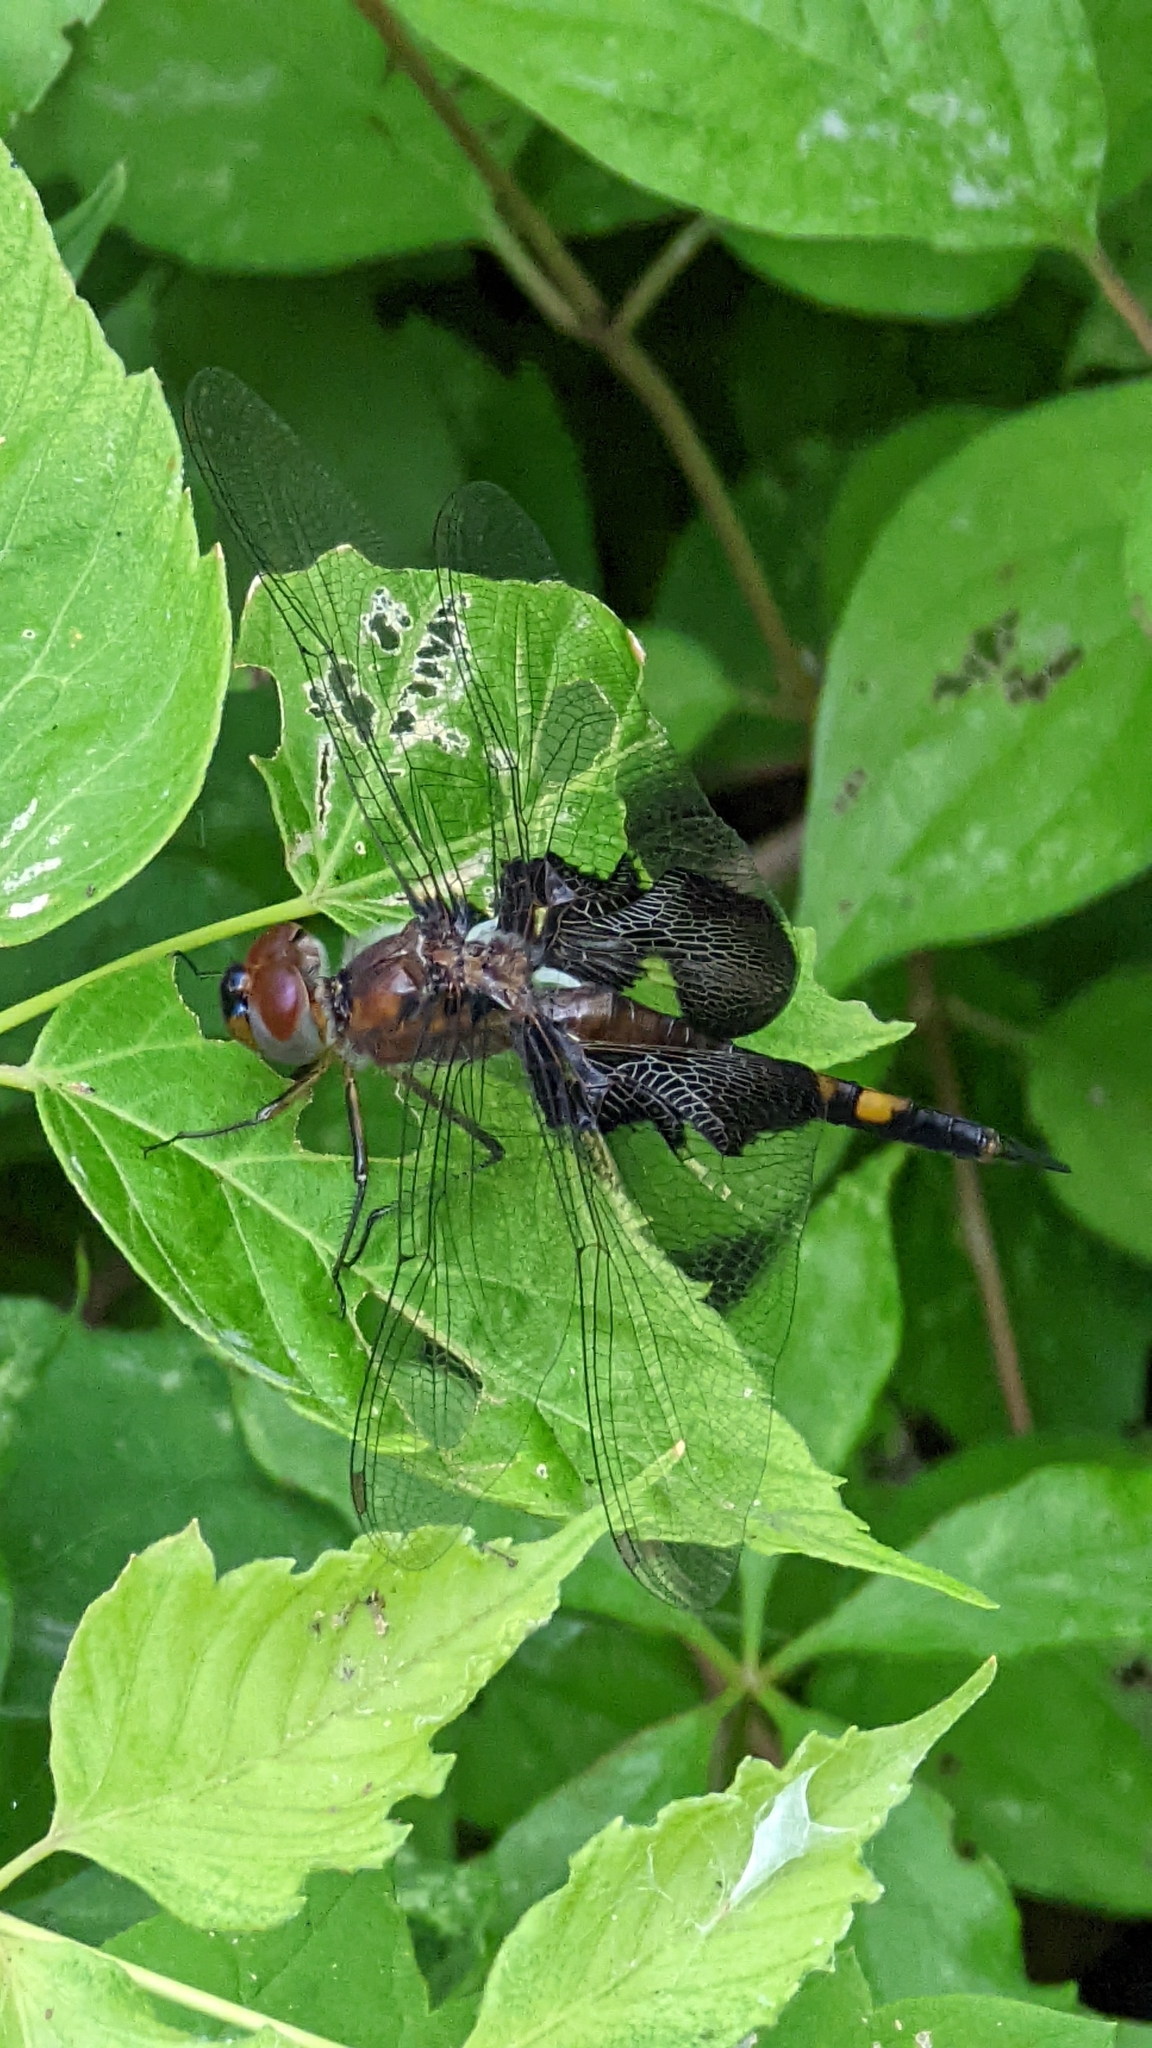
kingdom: Animalia
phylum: Arthropoda
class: Insecta
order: Odonata
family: Libellulidae
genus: Tramea
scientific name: Tramea lacerata
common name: Black saddlebags
